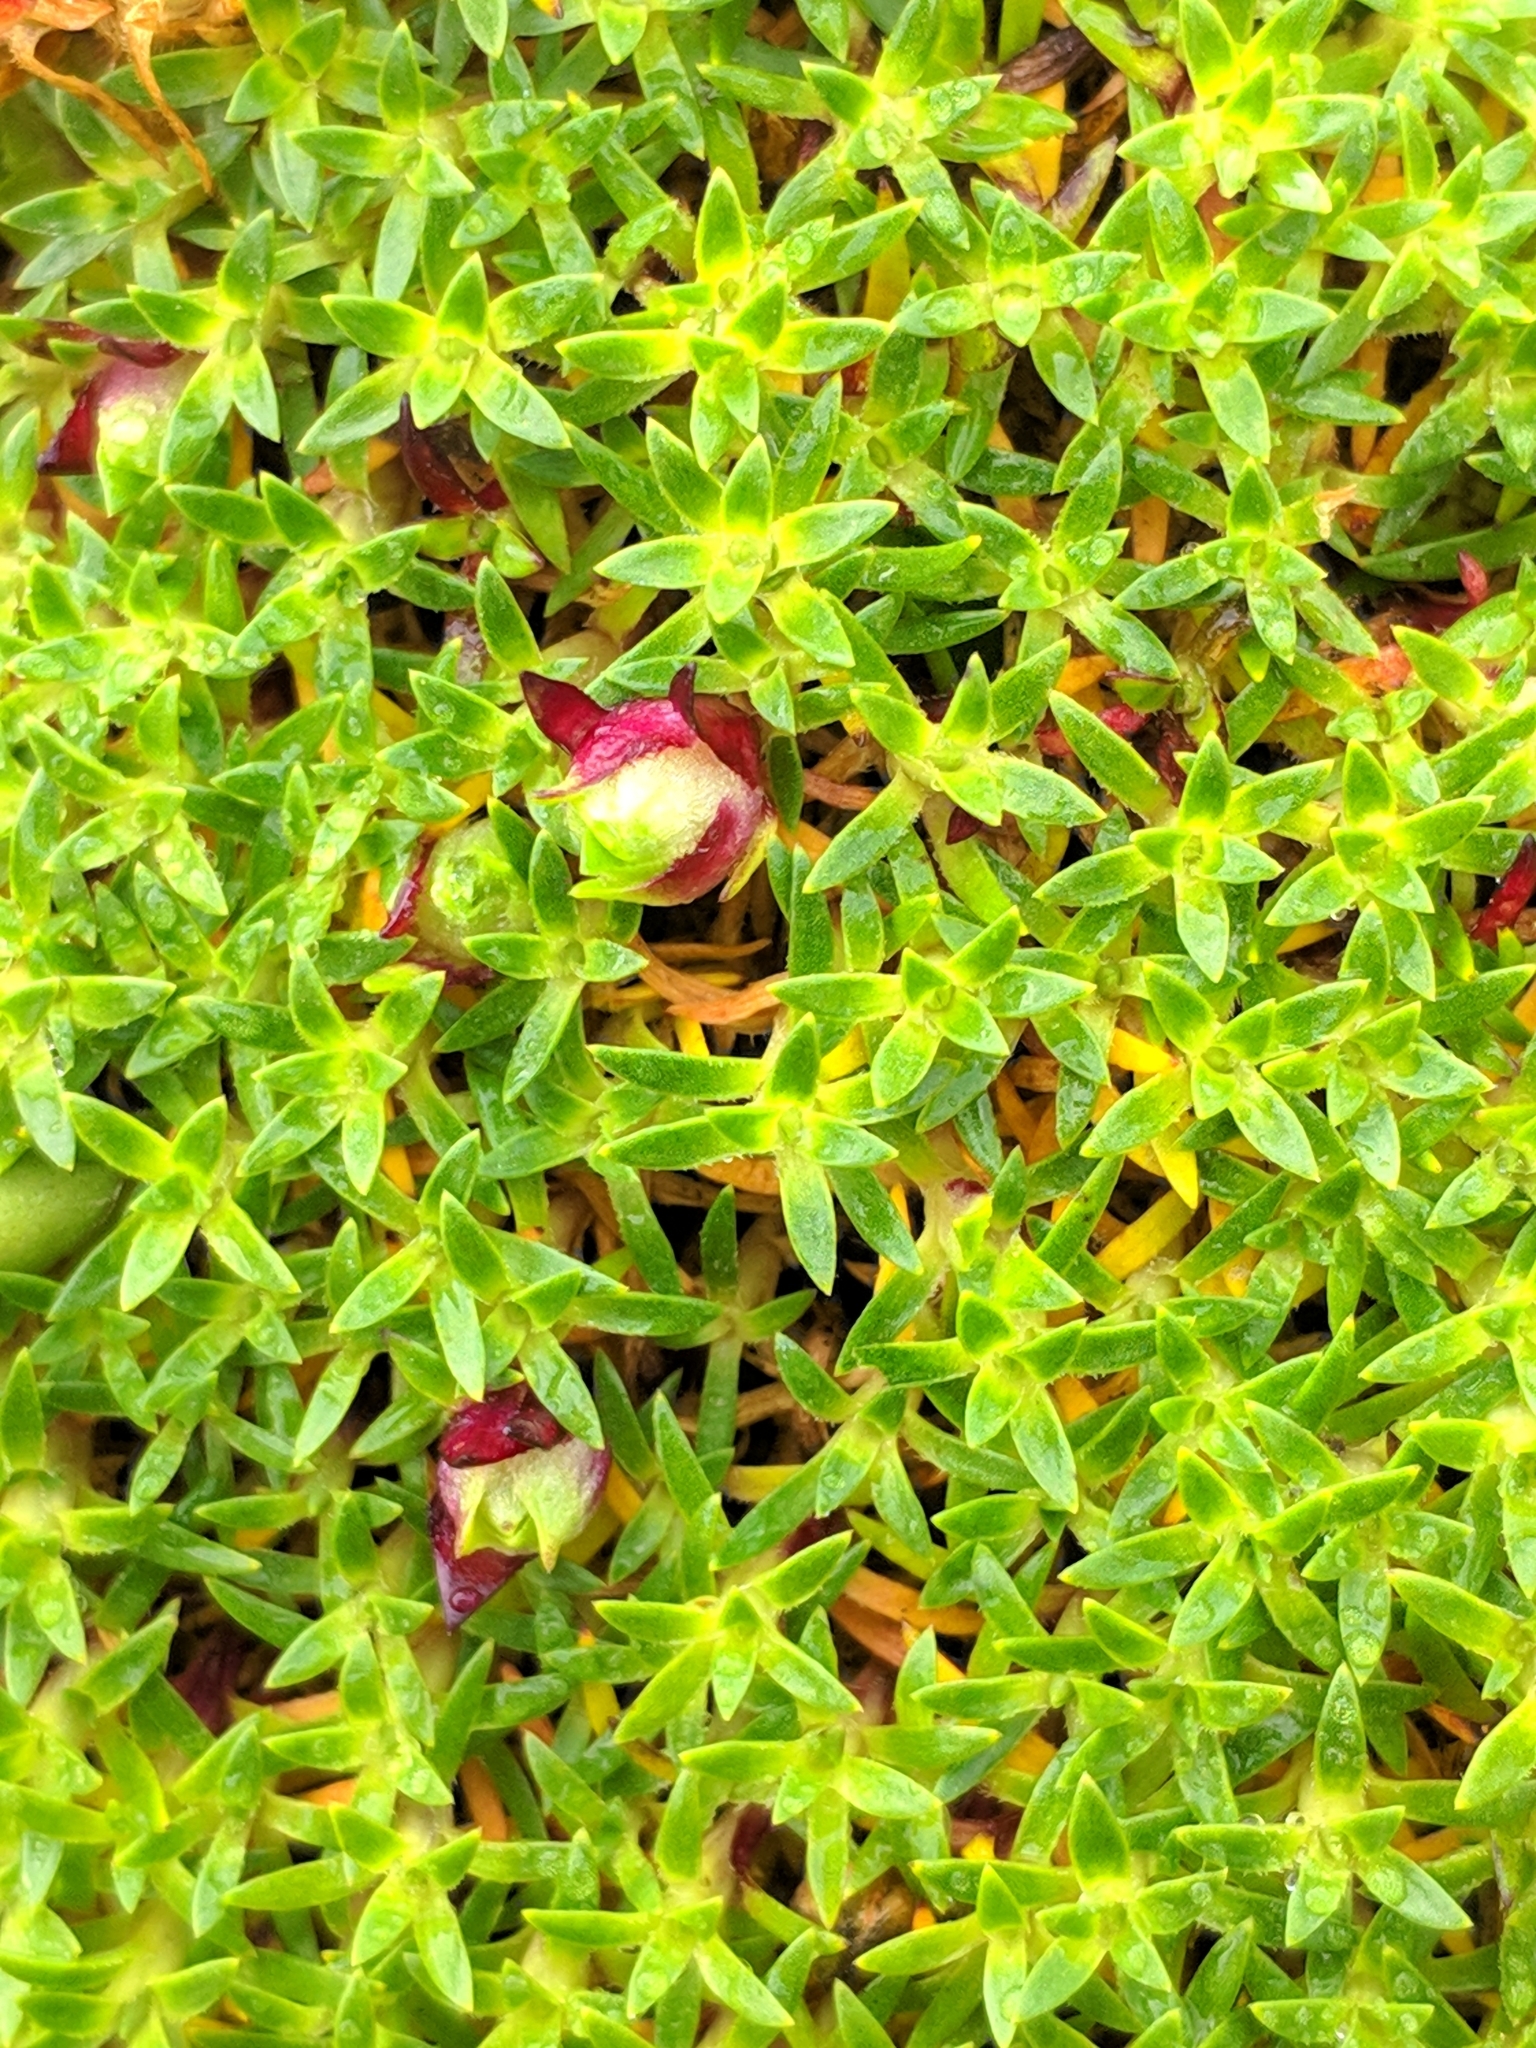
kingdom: Plantae
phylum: Tracheophyta
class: Magnoliopsida
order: Caryophyllales
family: Caryophyllaceae
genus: Silene
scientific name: Silene acaulis
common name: Moss campion
